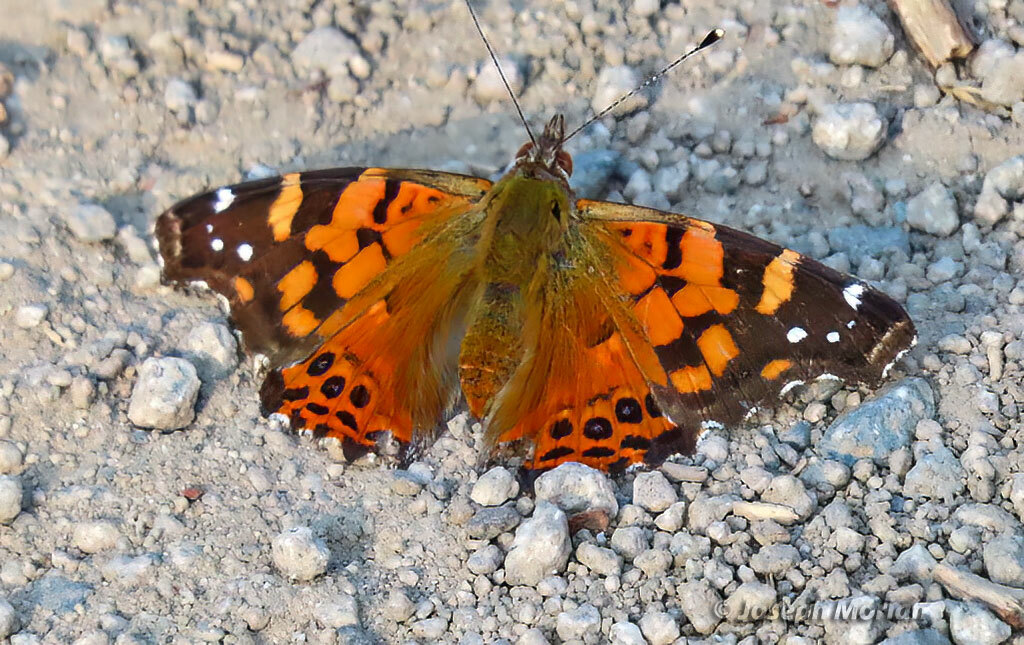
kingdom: Animalia
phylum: Arthropoda
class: Insecta
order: Lepidoptera
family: Nymphalidae
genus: Vanessa
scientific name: Vanessa carye
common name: Subtropical lady
